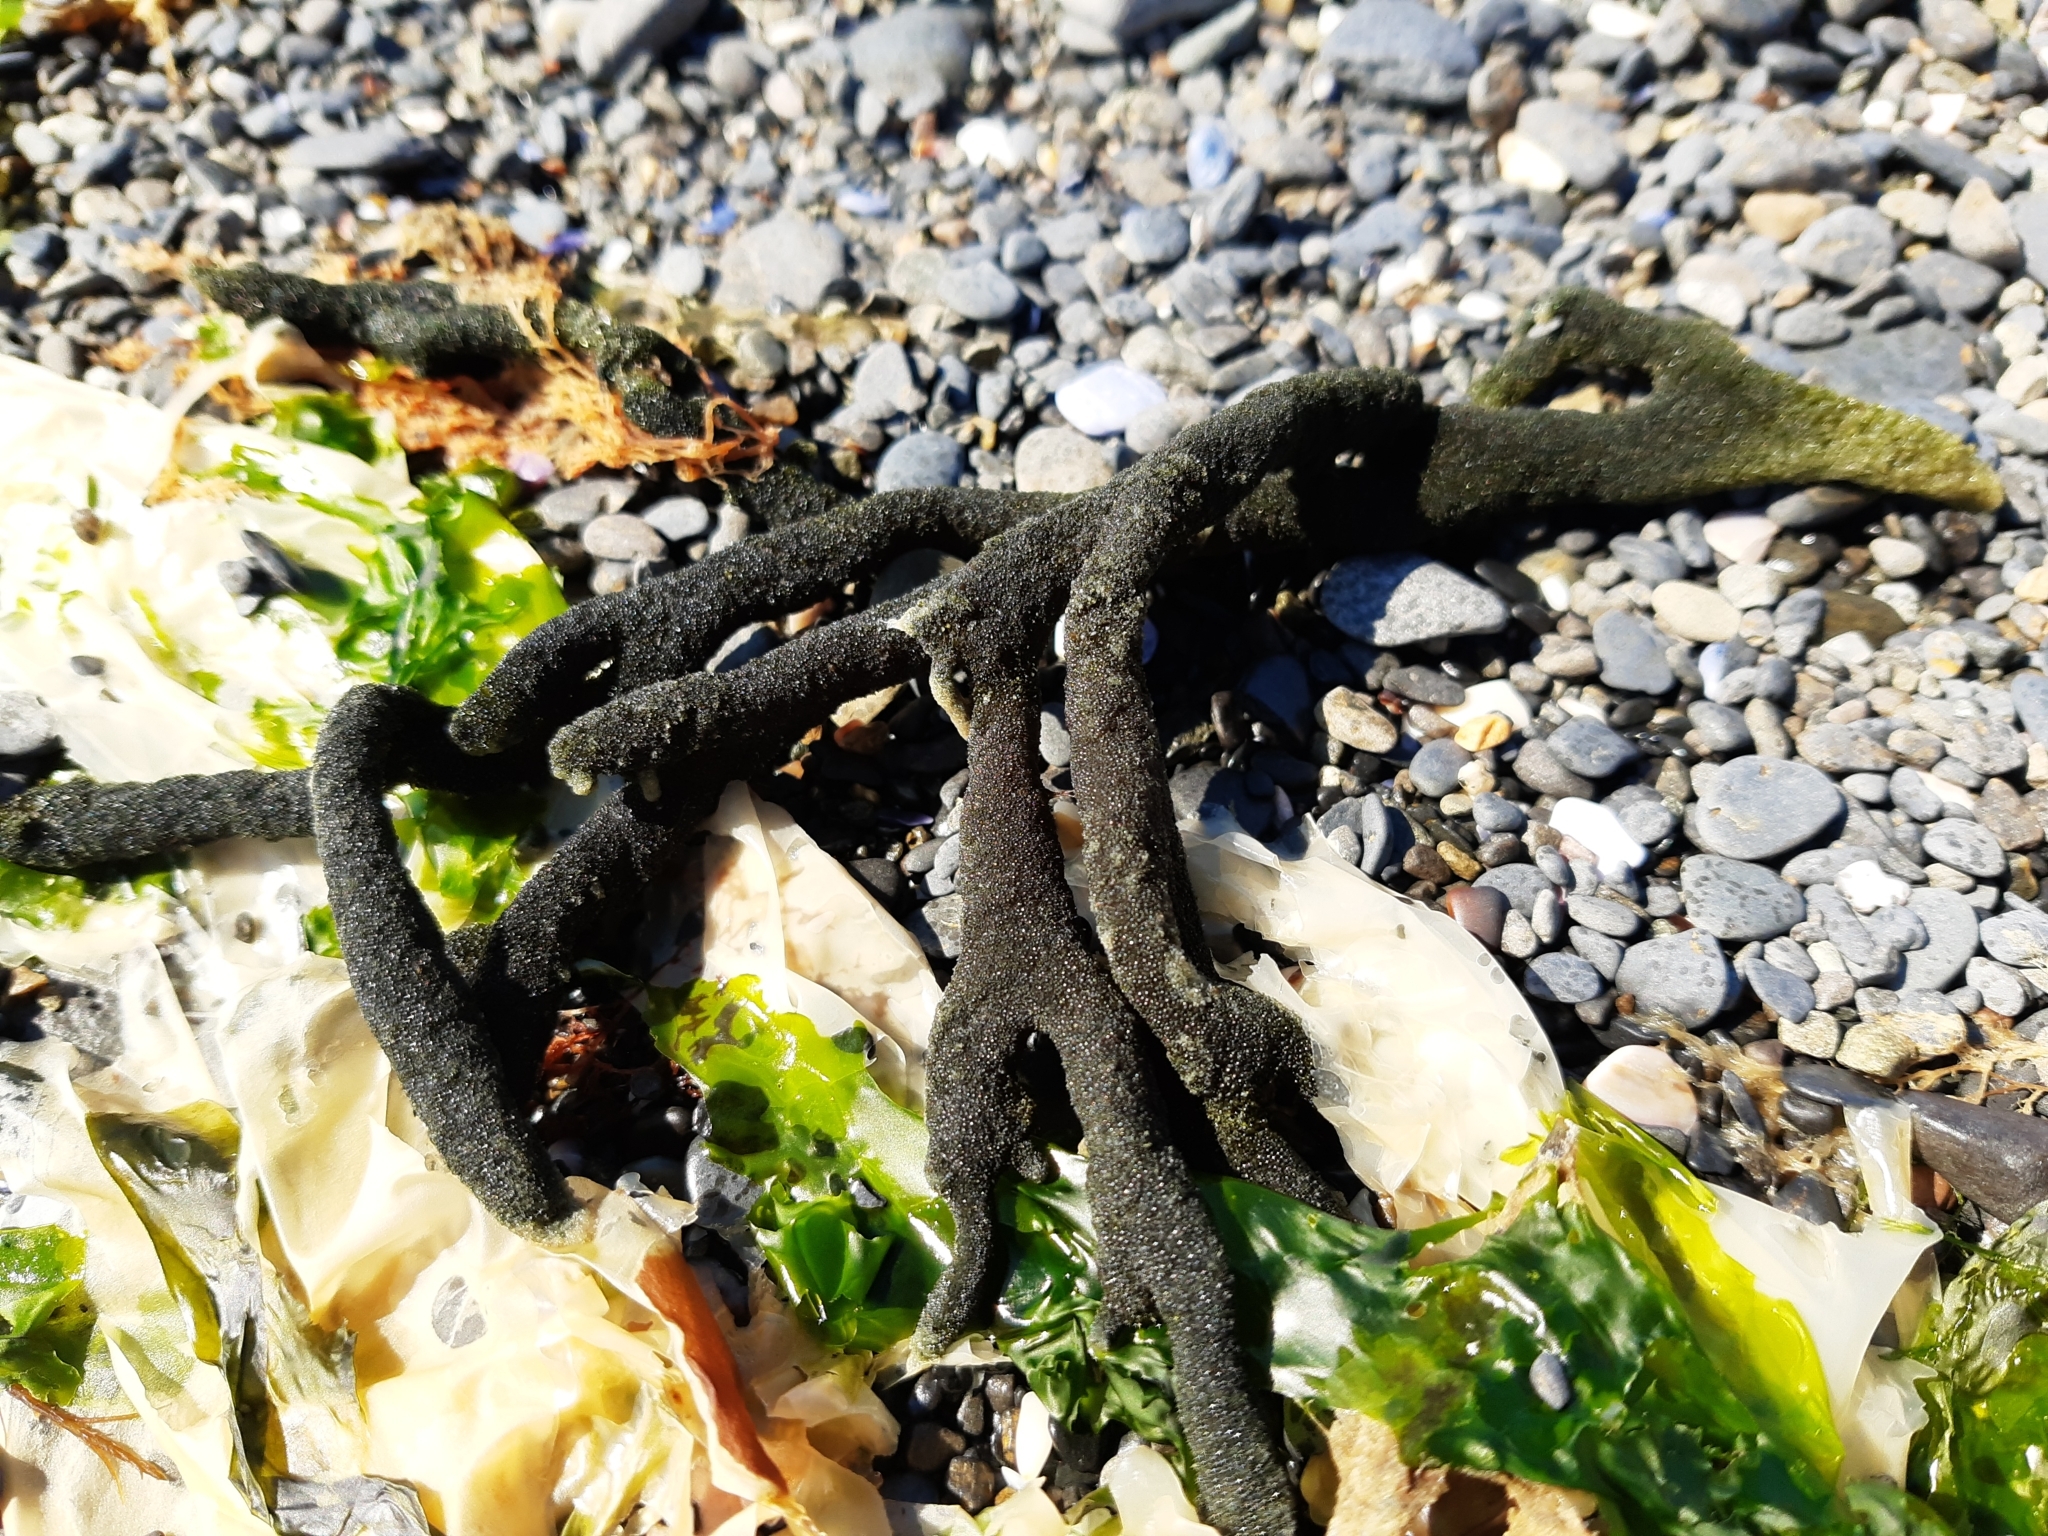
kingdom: Plantae
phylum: Chlorophyta
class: Ulvophyceae
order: Bryopsidales
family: Codiaceae
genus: Codium
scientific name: Codium fragile
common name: Dead man's fingers
